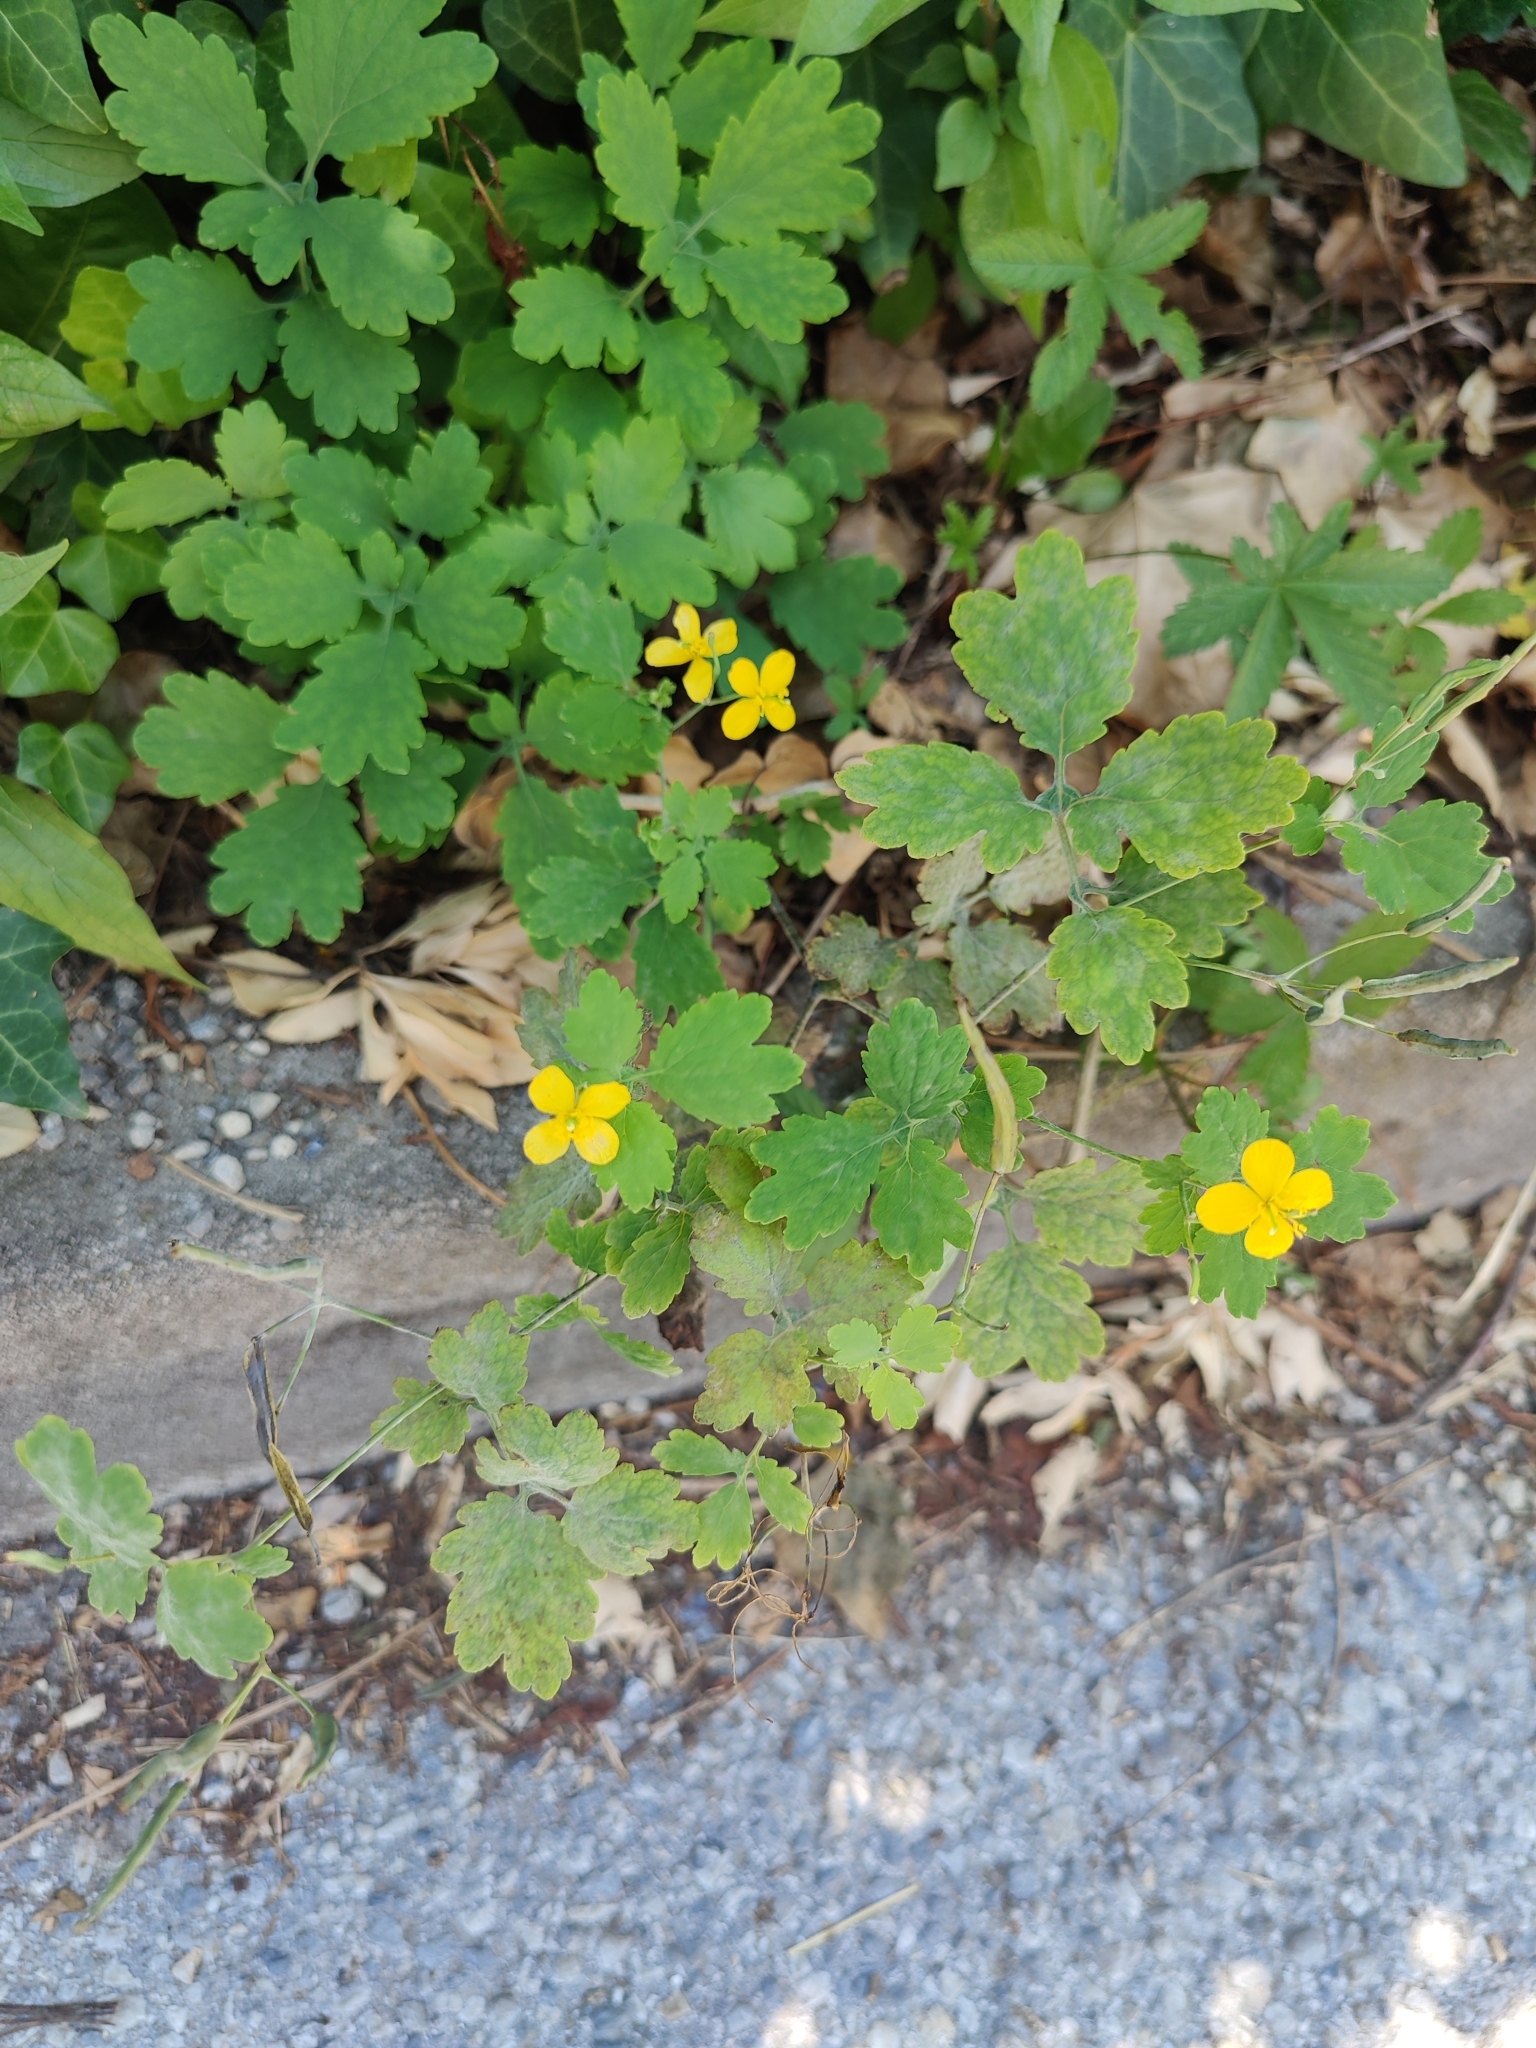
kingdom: Plantae
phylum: Tracheophyta
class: Magnoliopsida
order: Ranunculales
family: Papaveraceae
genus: Chelidonium
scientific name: Chelidonium majus
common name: Greater celandine
